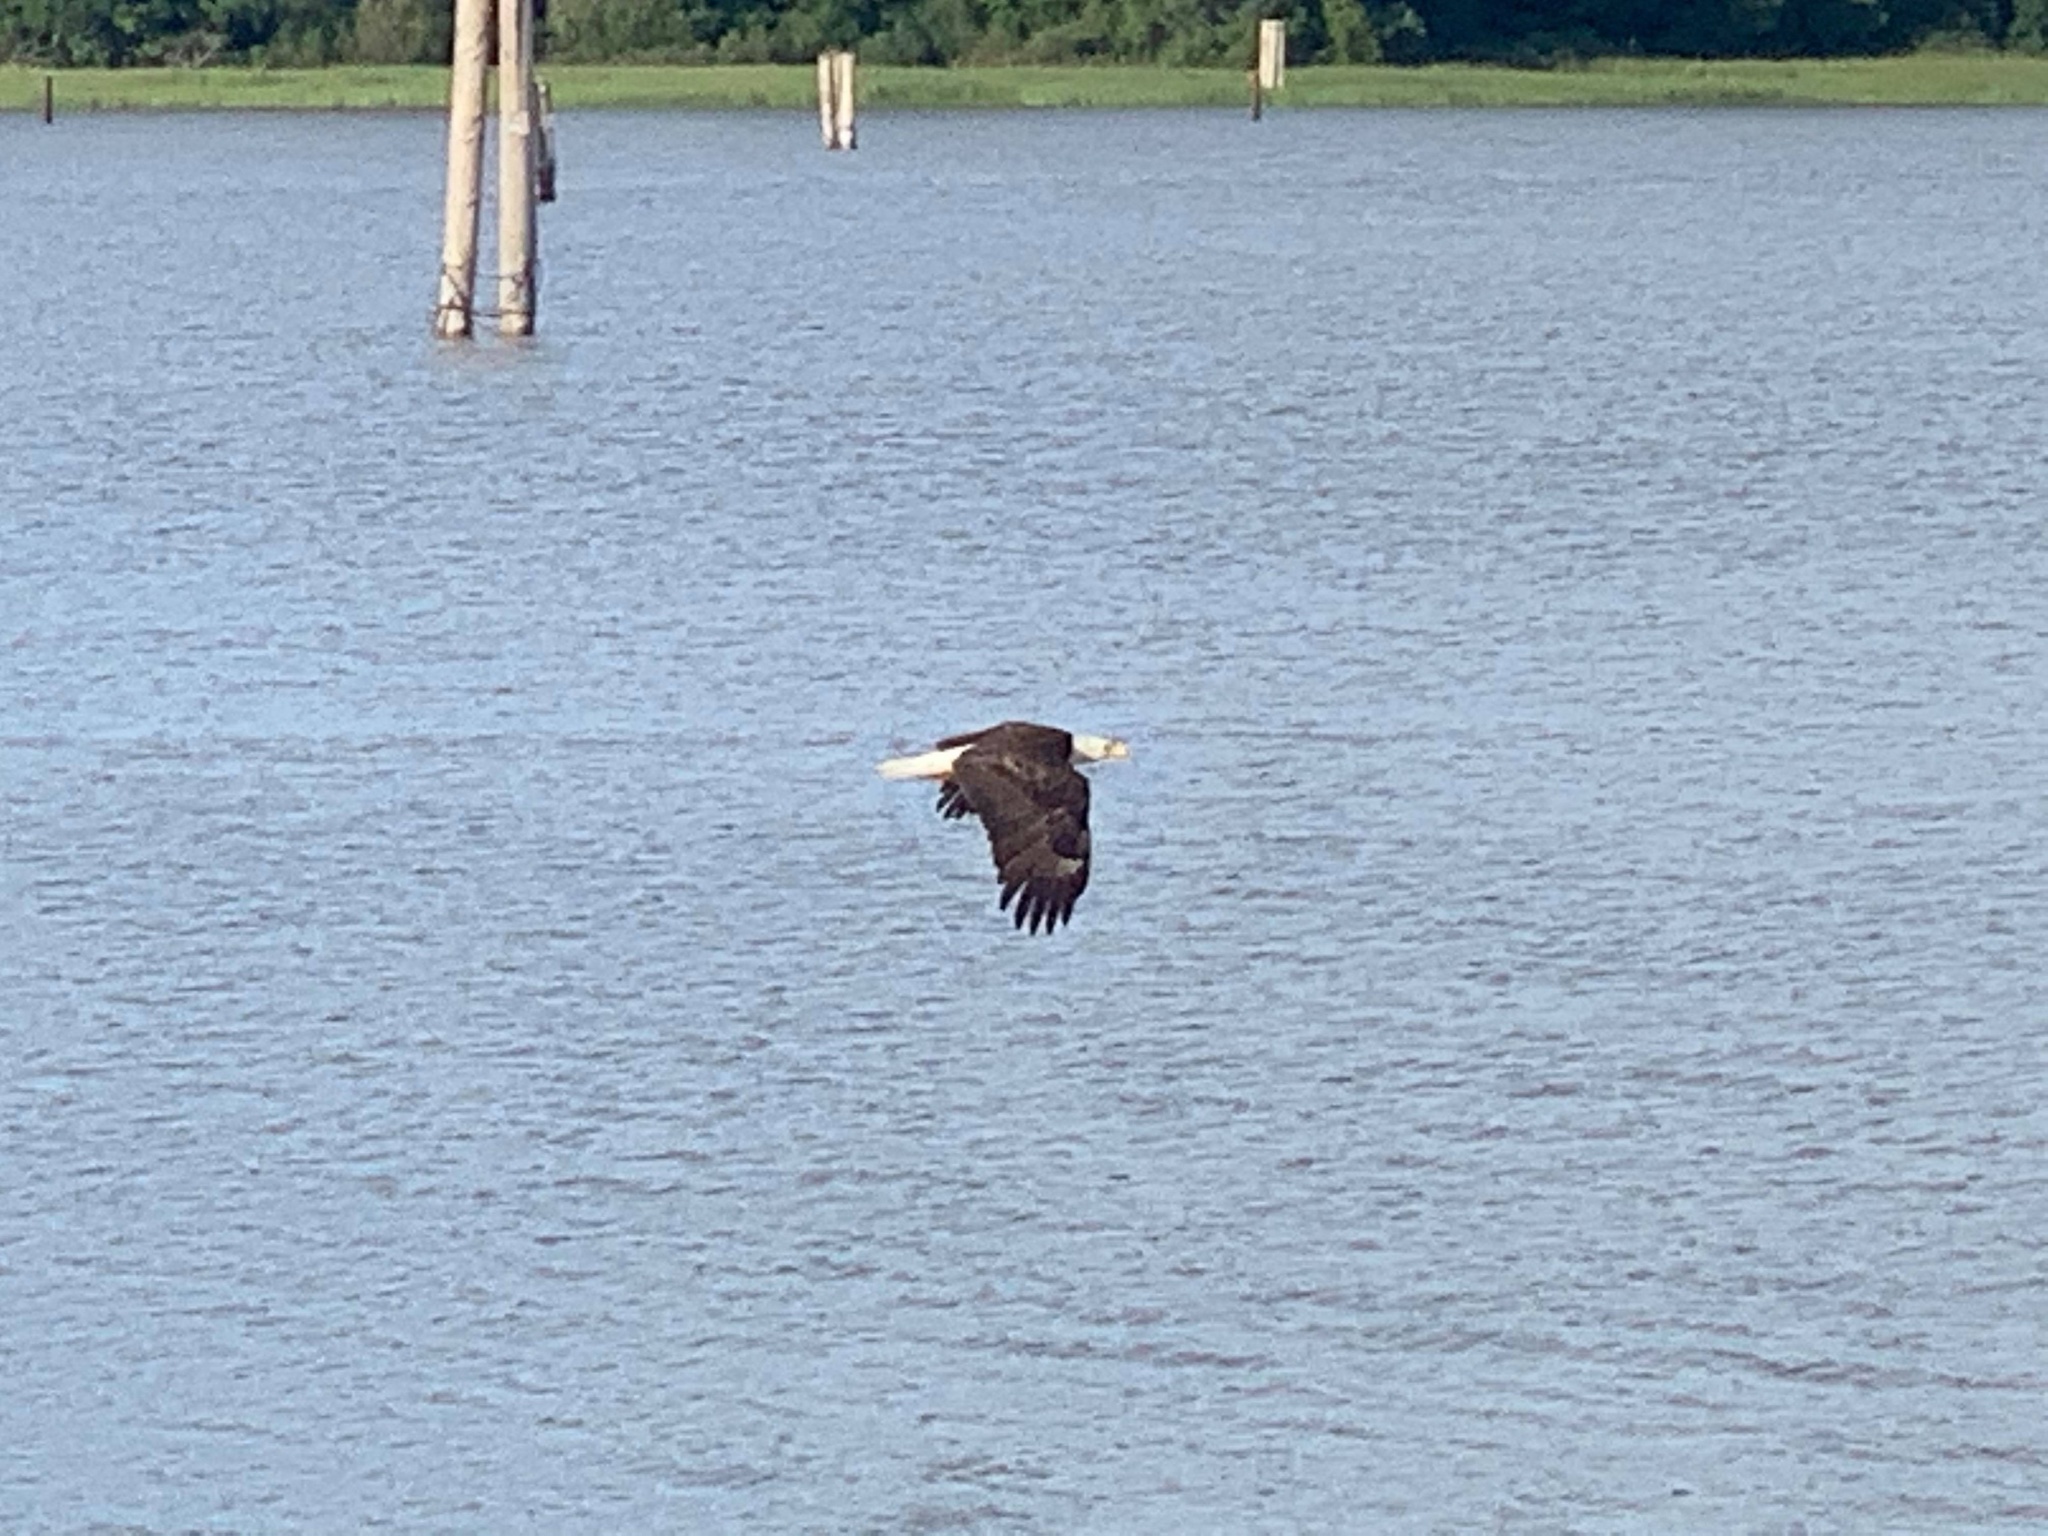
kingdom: Animalia
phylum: Chordata
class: Aves
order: Accipitriformes
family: Accipitridae
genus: Haliaeetus
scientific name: Haliaeetus leucocephalus
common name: Bald eagle
